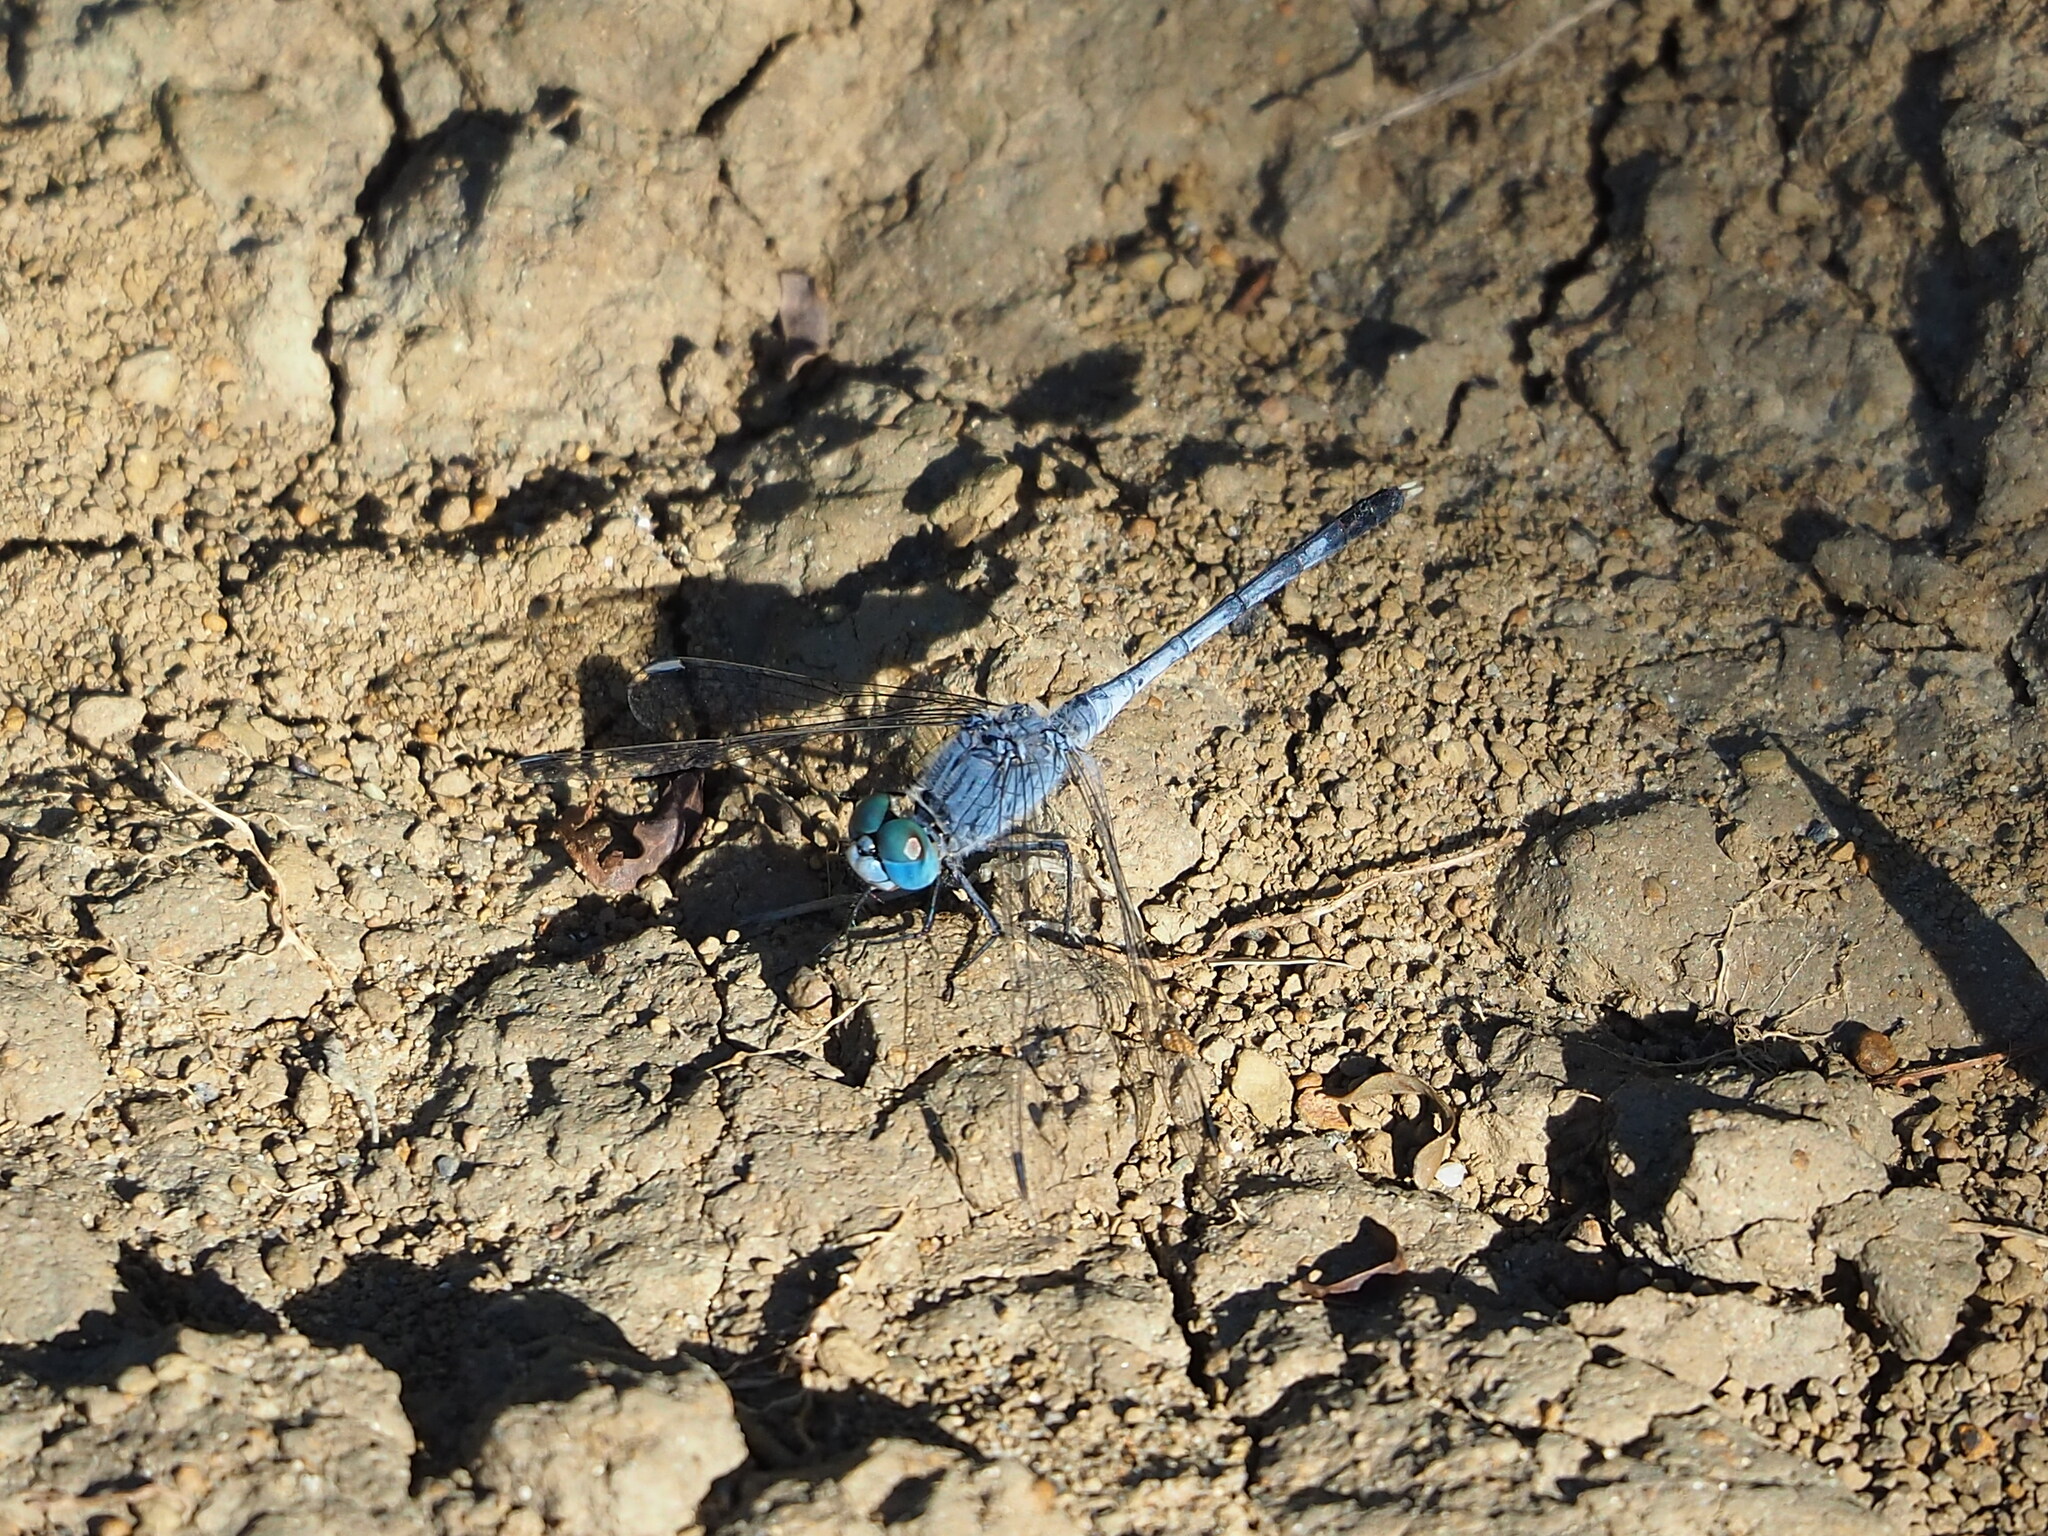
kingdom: Animalia
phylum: Arthropoda
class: Insecta
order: Odonata
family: Libellulidae
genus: Diplacodes
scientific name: Diplacodes trivialis
